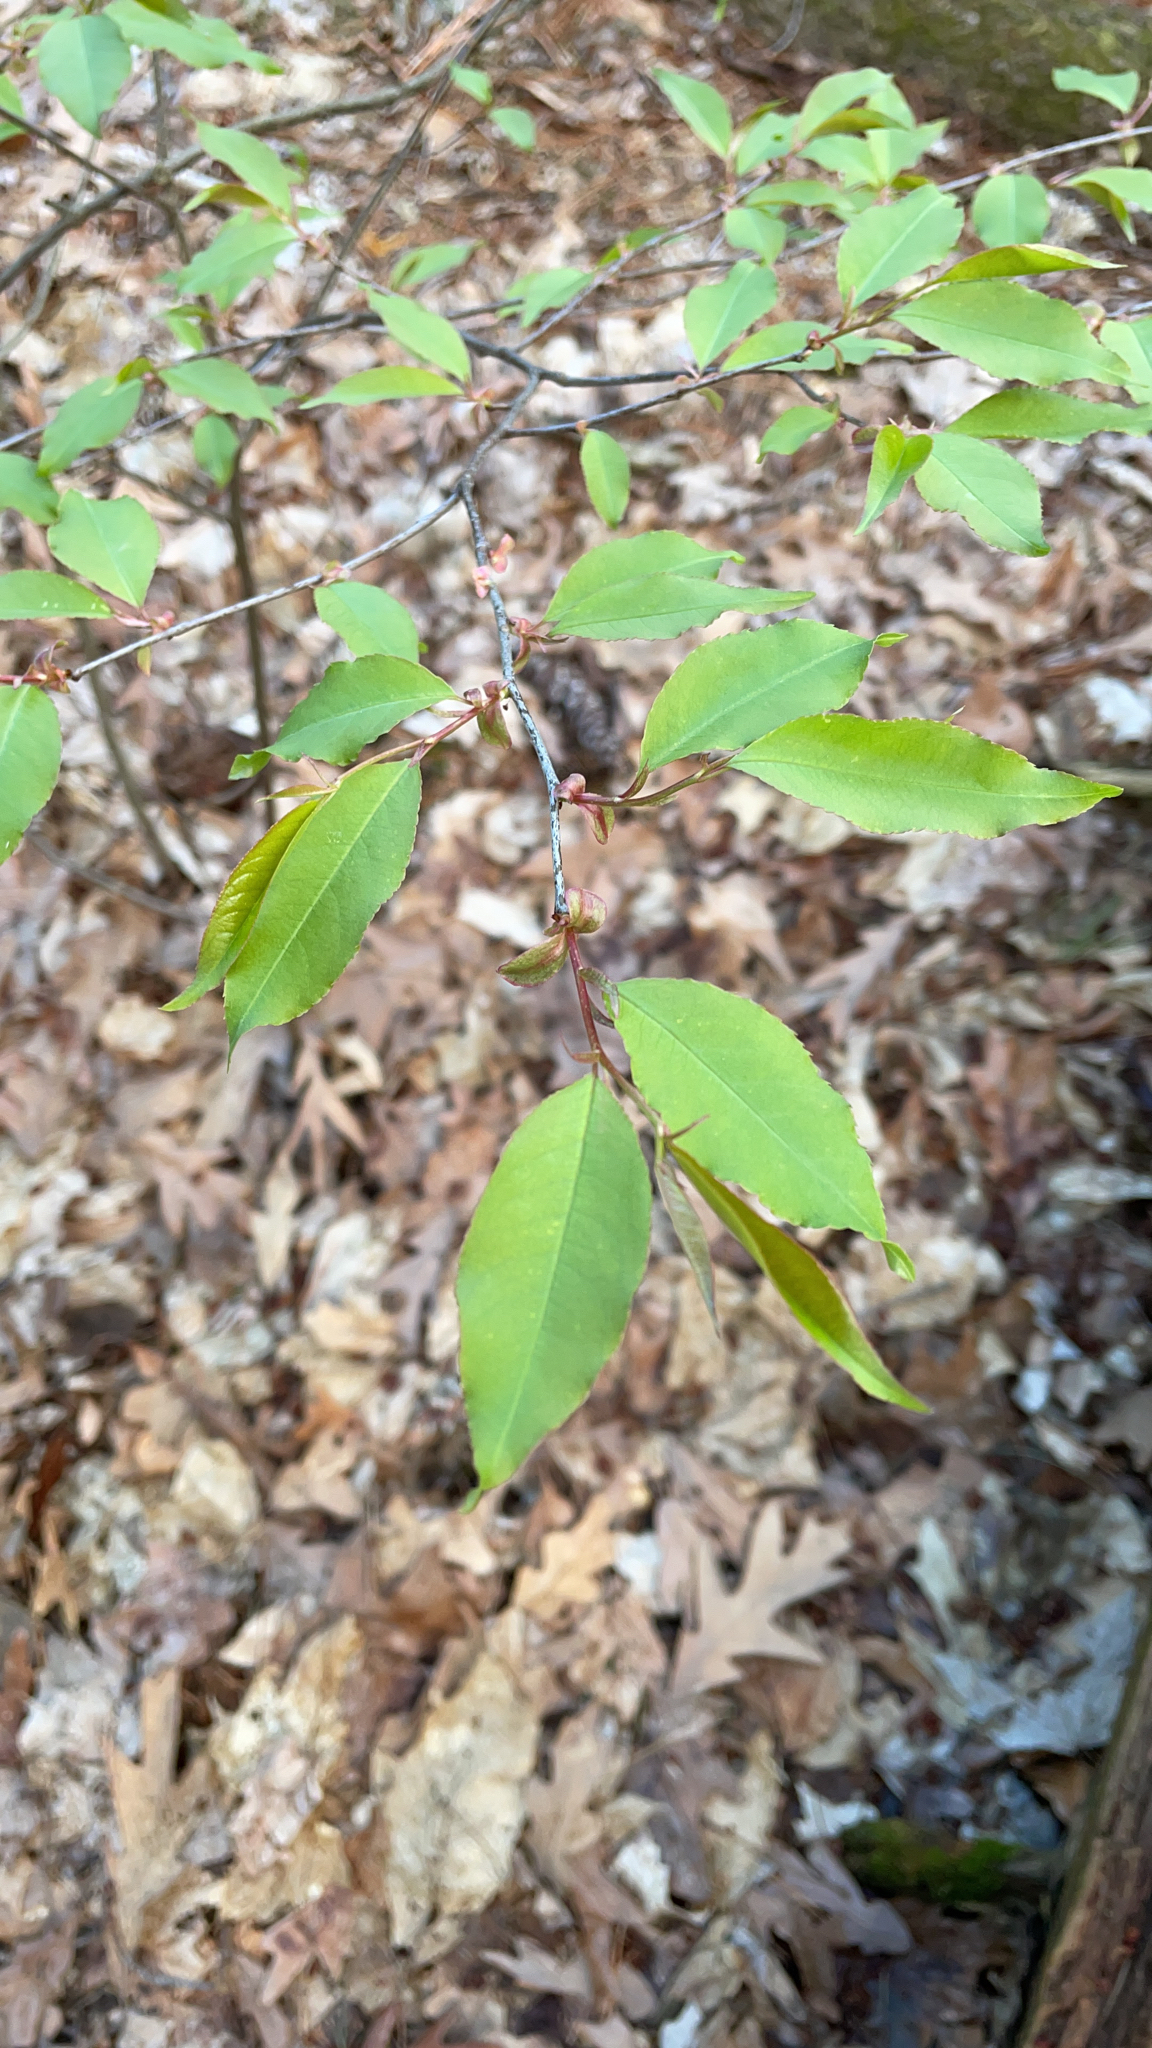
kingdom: Plantae
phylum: Tracheophyta
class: Magnoliopsida
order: Rosales
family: Rosaceae
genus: Prunus
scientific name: Prunus serotina
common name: Black cherry
